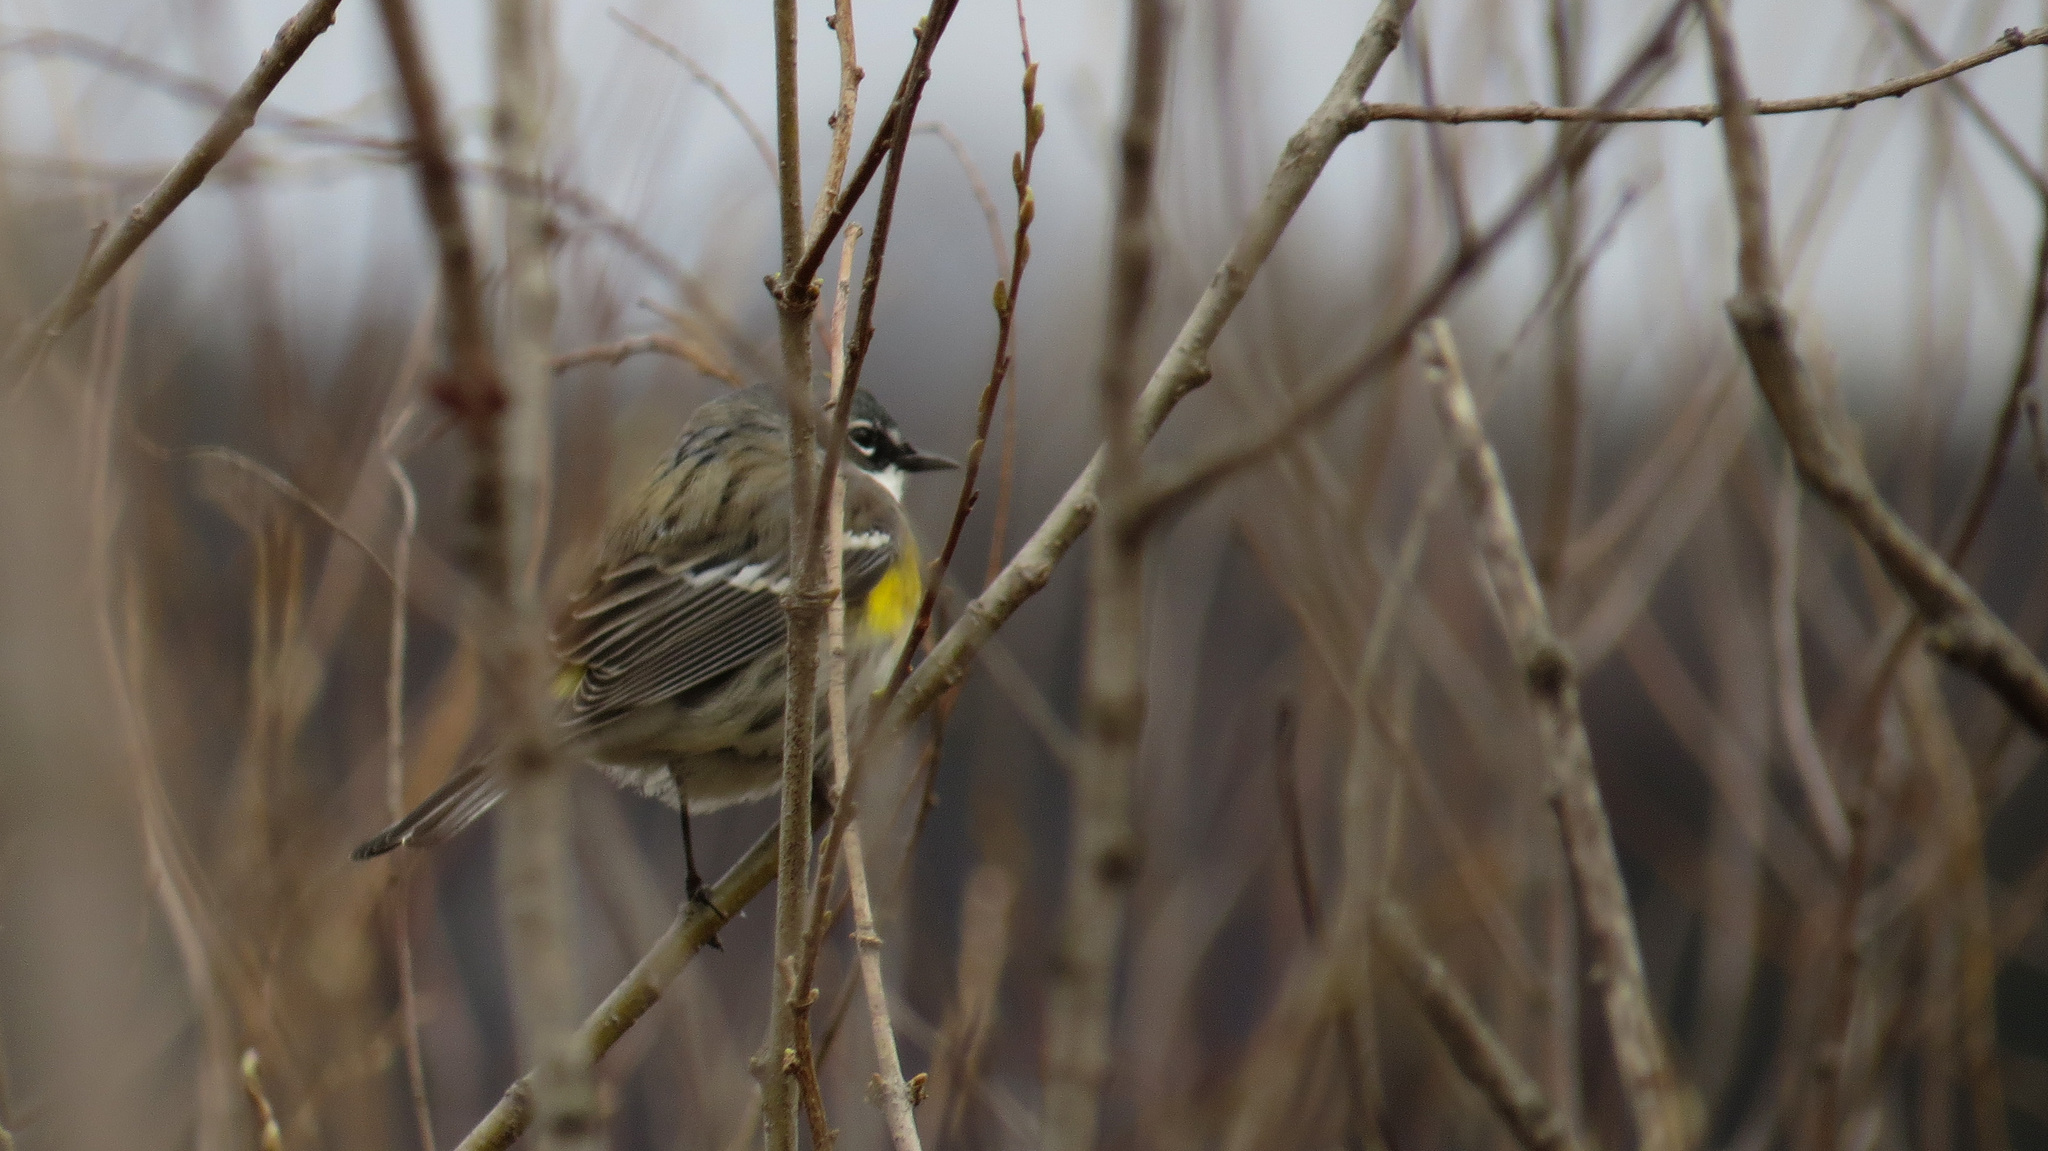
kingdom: Animalia
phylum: Chordata
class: Aves
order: Passeriformes
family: Parulidae
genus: Setophaga
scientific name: Setophaga coronata
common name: Myrtle warbler
